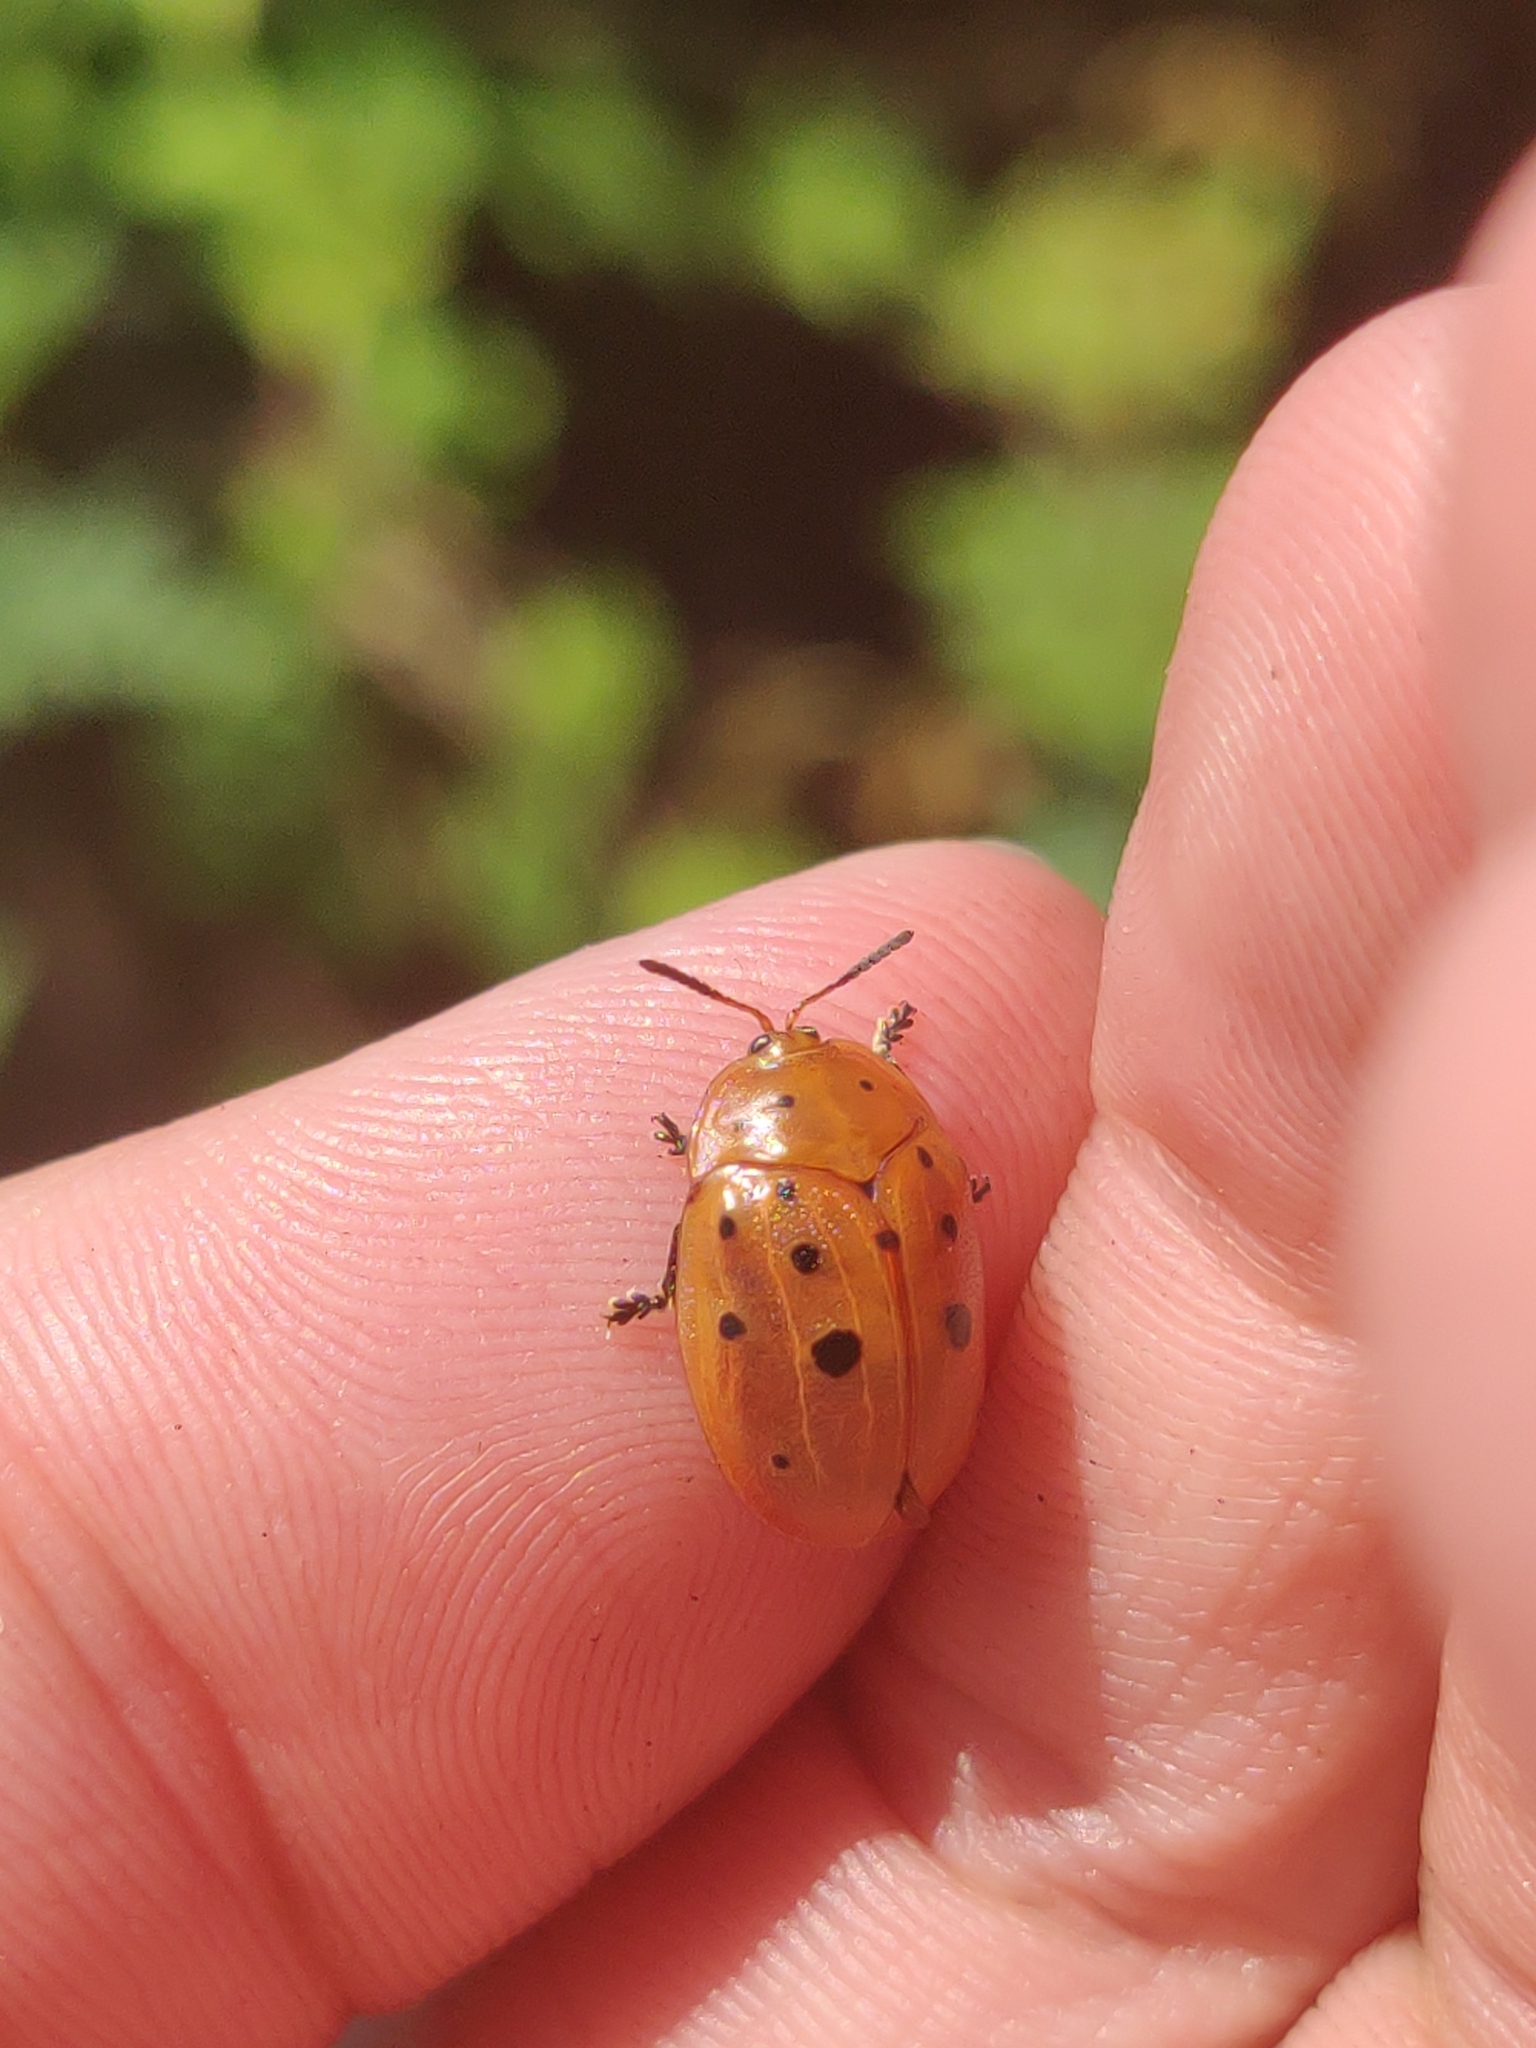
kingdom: Animalia
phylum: Arthropoda
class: Insecta
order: Coleoptera
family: Chrysomelidae
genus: Chelymorpha
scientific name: Chelymorpha cassidea
